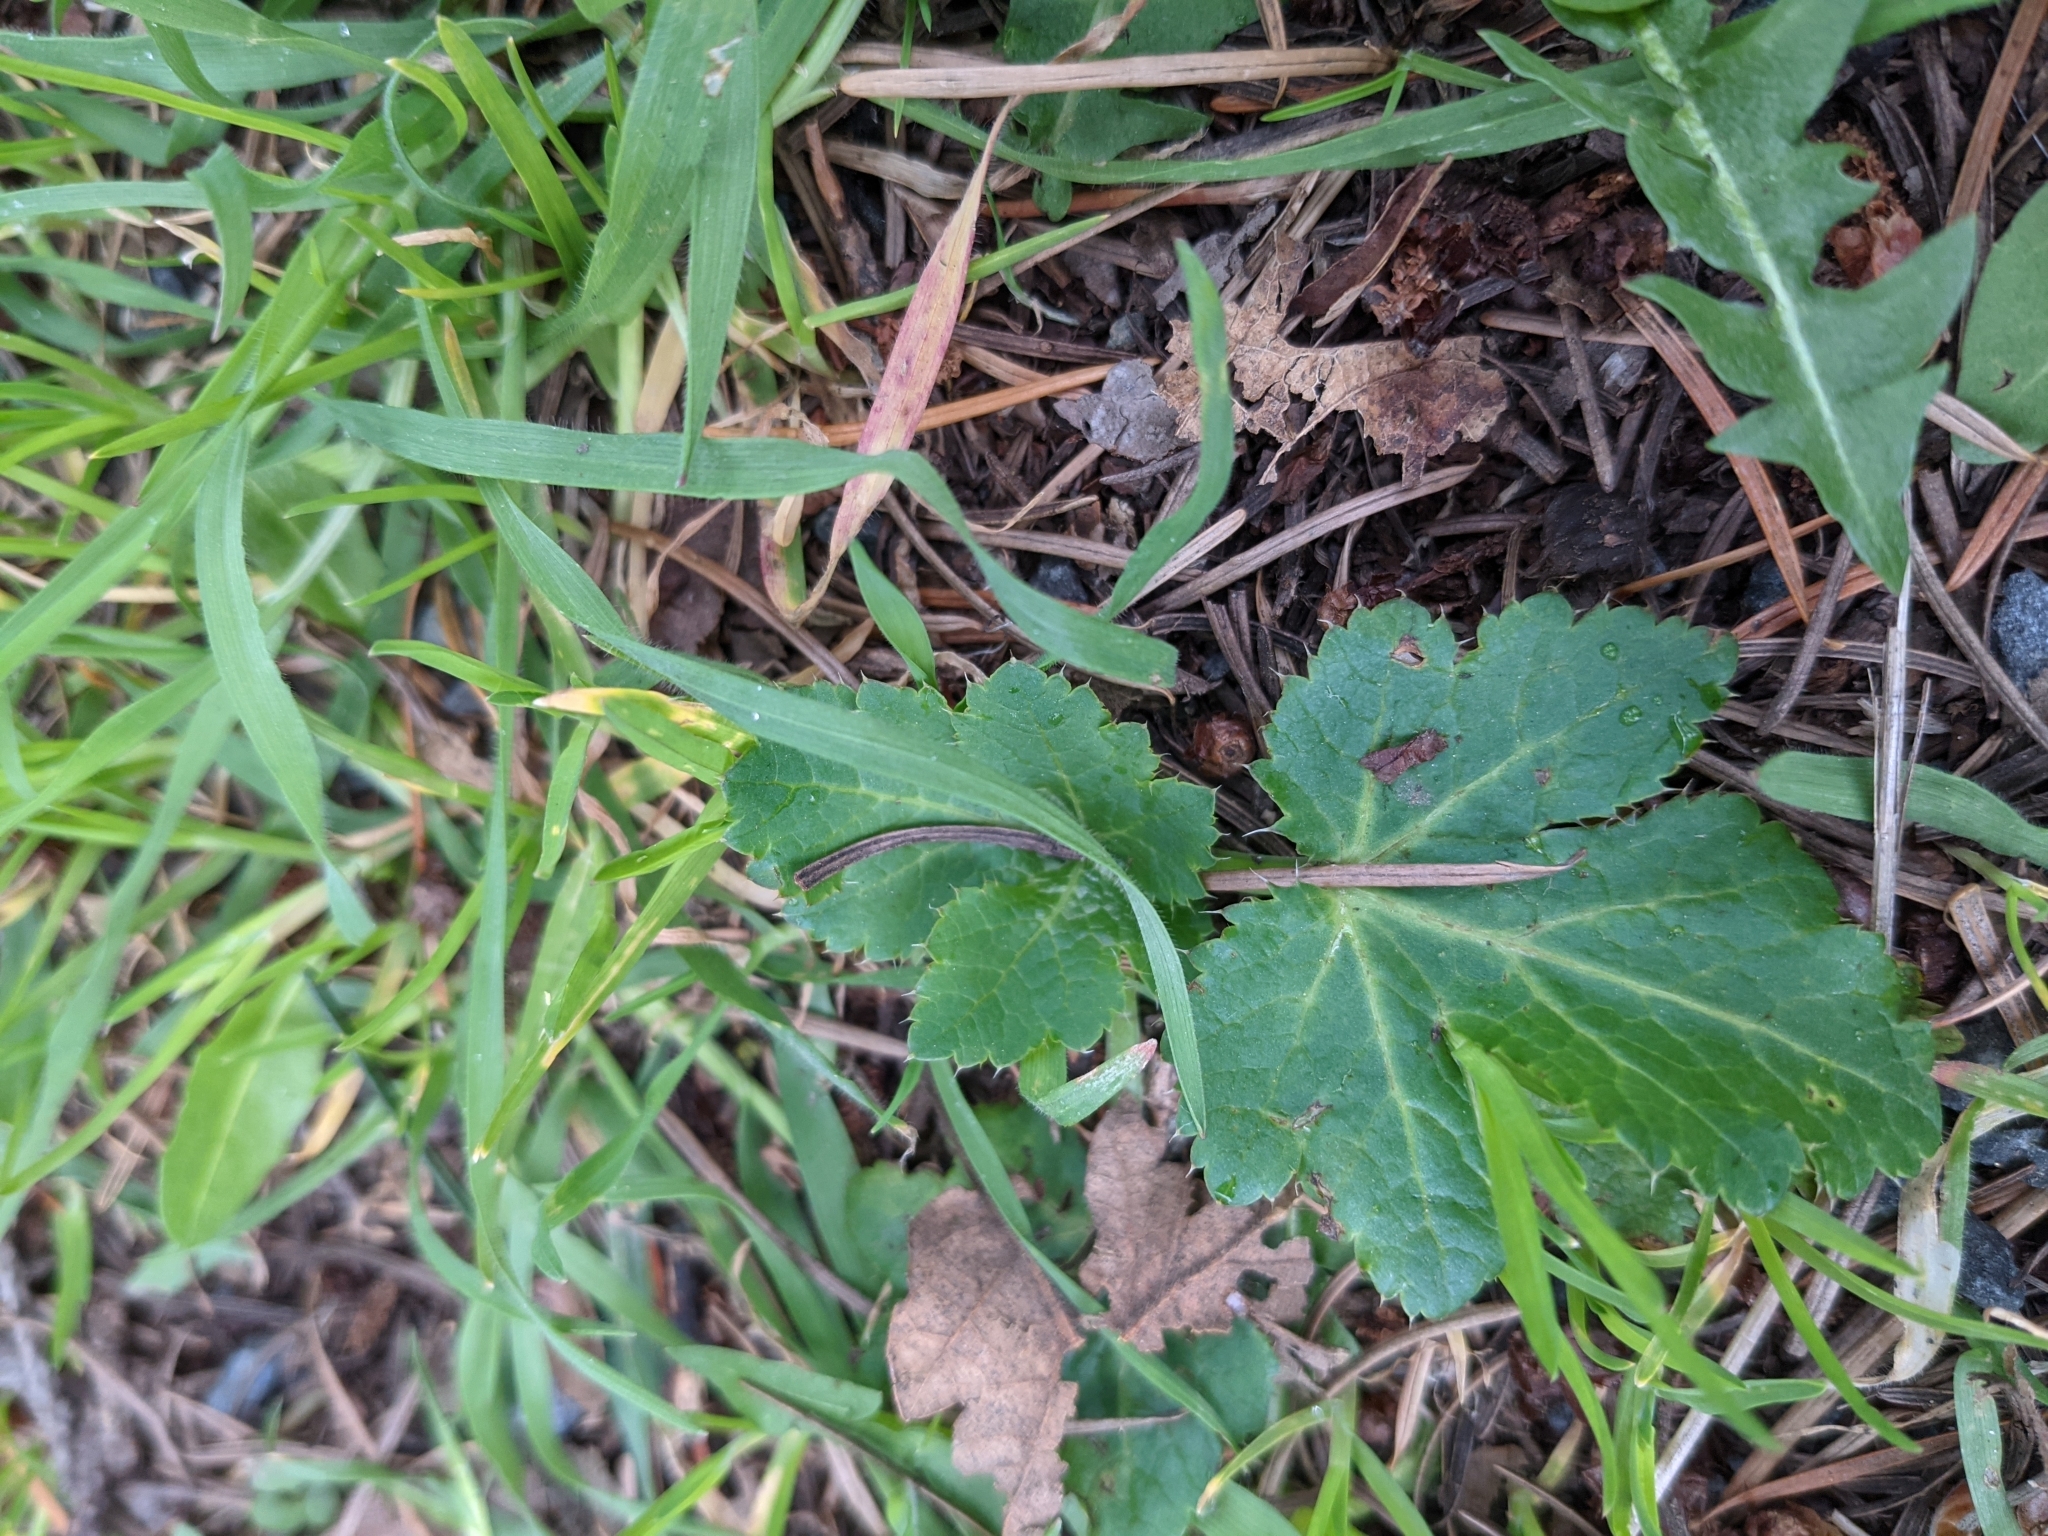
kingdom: Plantae
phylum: Tracheophyta
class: Magnoliopsida
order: Apiales
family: Apiaceae
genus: Sanicula
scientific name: Sanicula crassicaulis
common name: Western snakeroot
